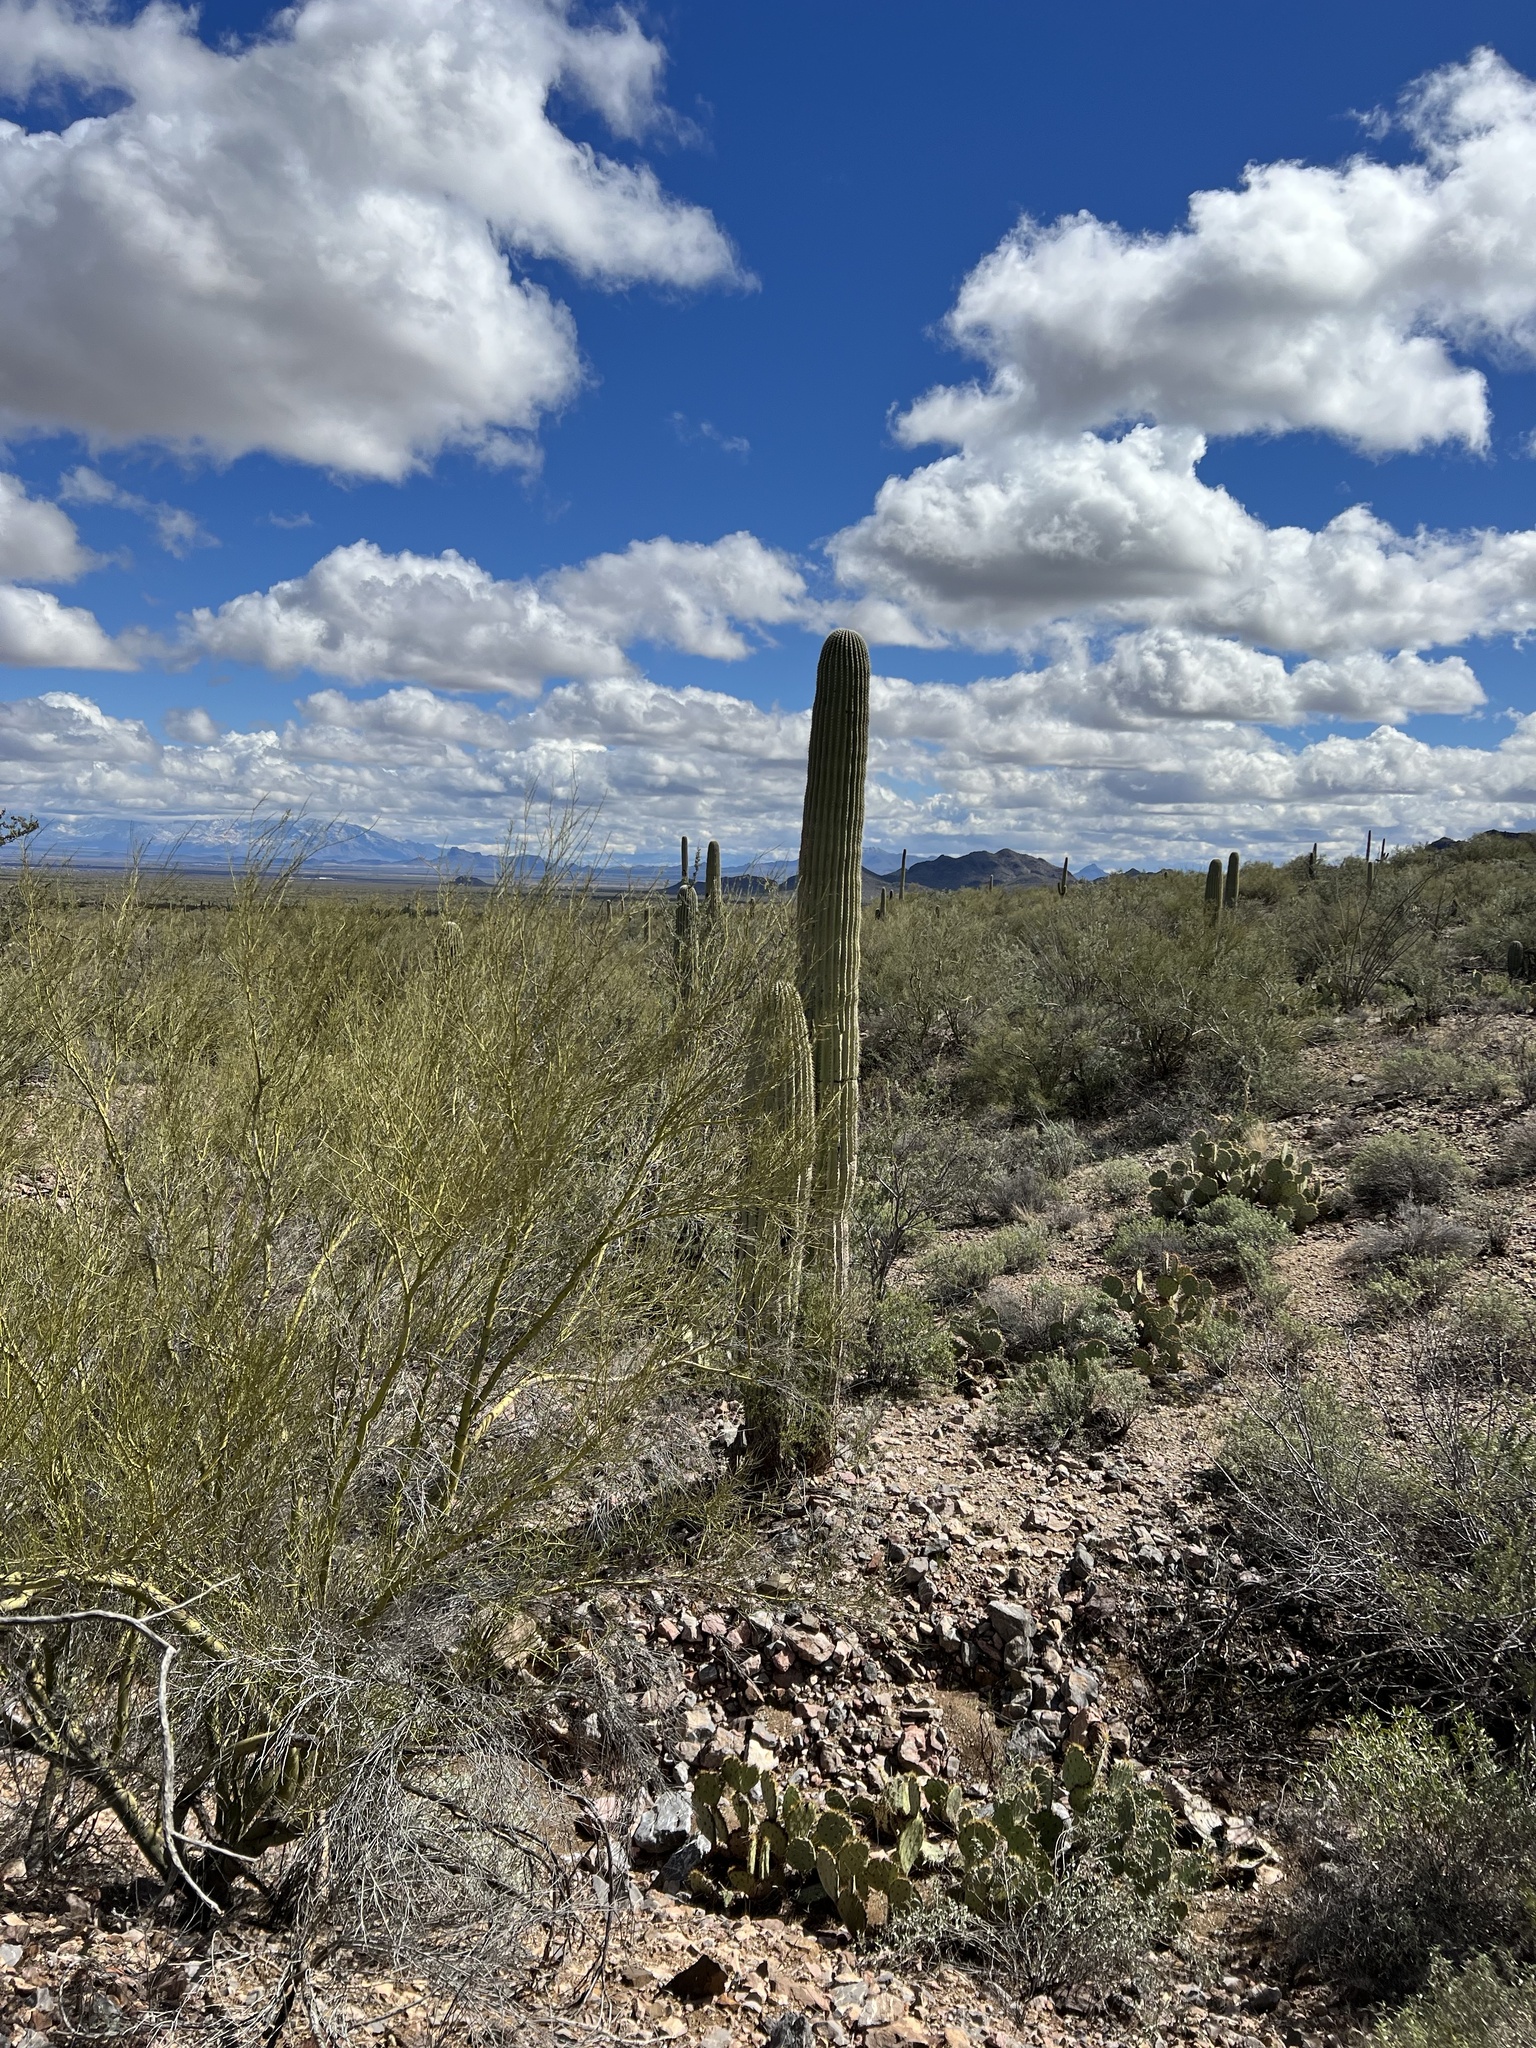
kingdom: Plantae
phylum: Tracheophyta
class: Magnoliopsida
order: Caryophyllales
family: Cactaceae
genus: Carnegiea
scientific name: Carnegiea gigantea
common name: Saguaro
